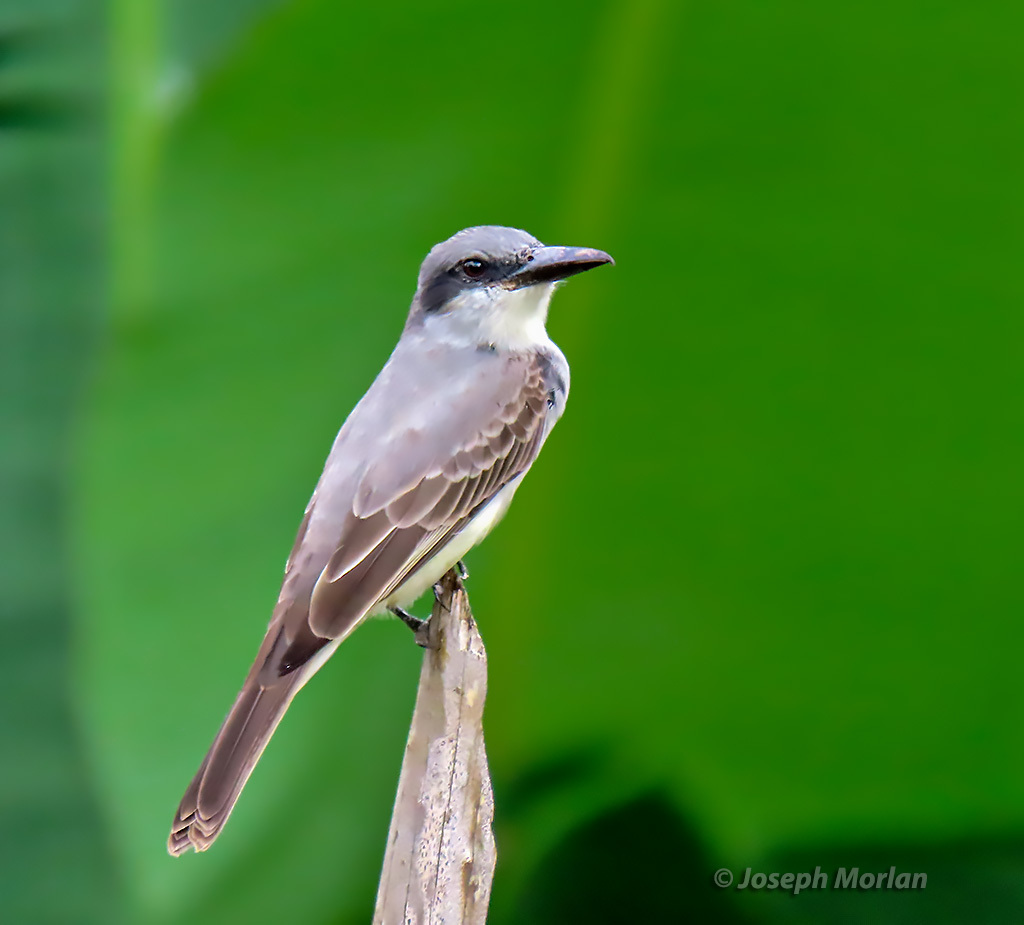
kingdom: Animalia
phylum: Chordata
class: Aves
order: Passeriformes
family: Tyrannidae
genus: Tyrannus
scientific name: Tyrannus dominicensis
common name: Gray kingbird
